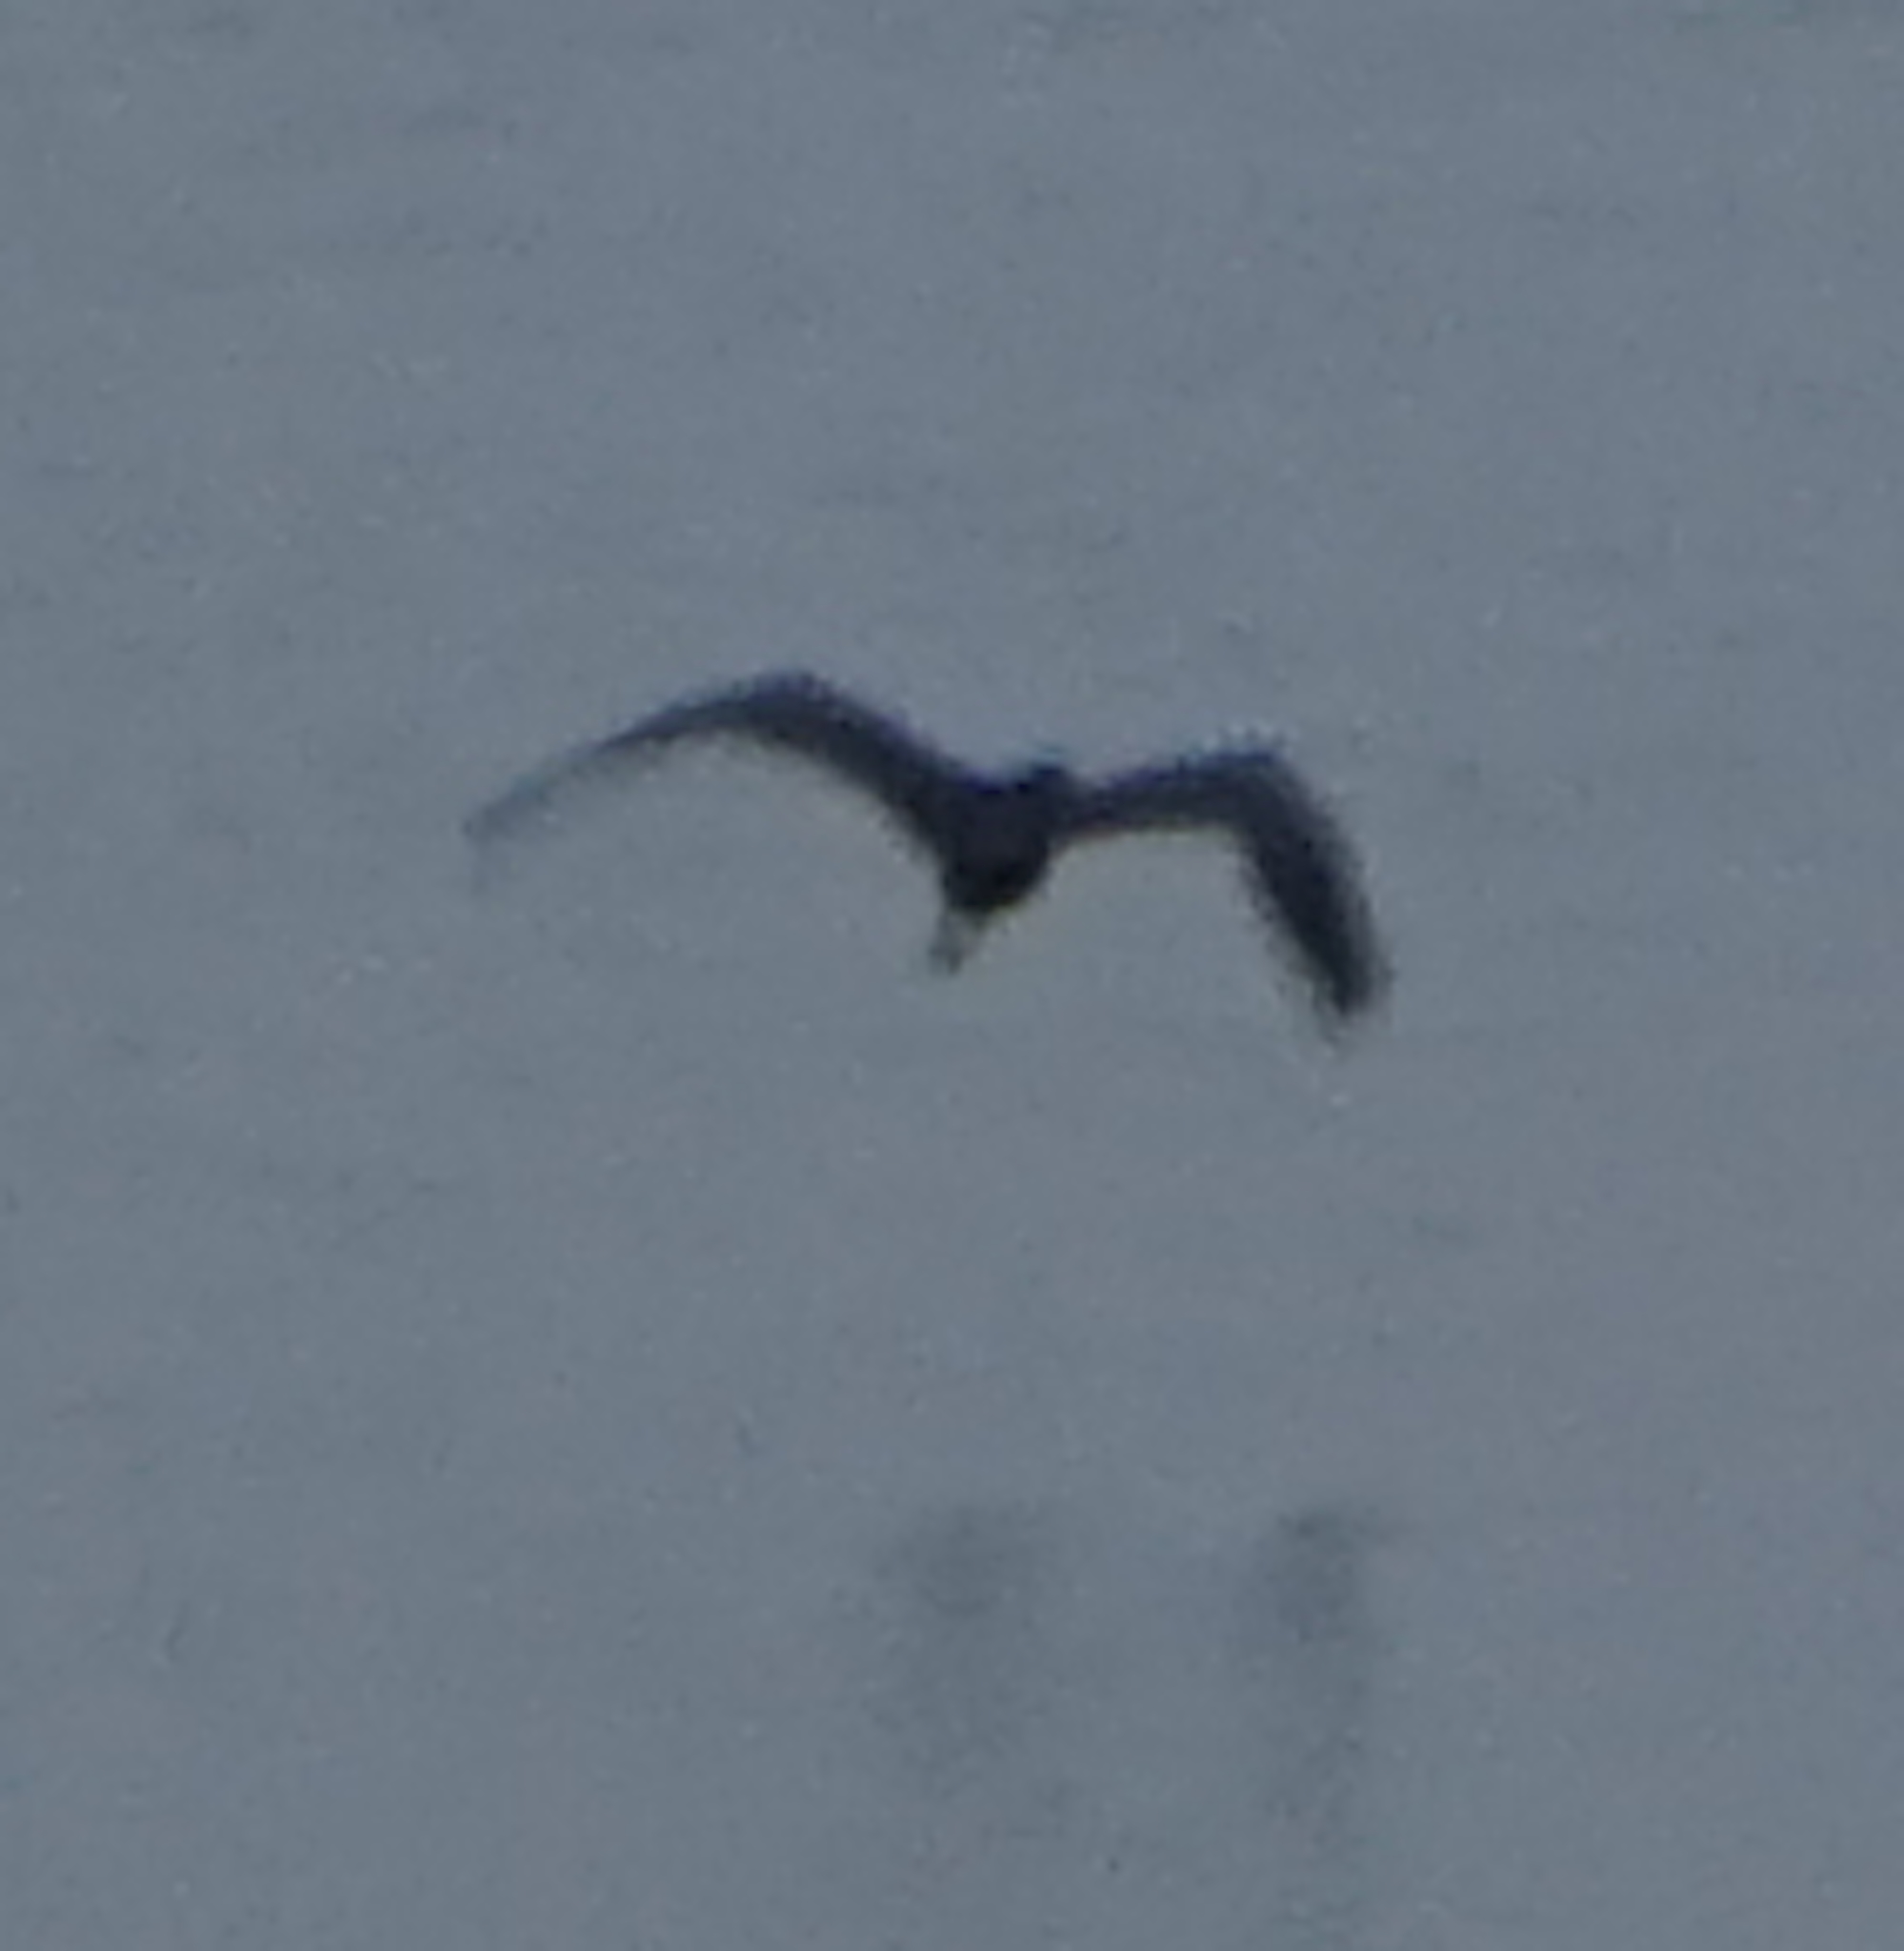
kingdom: Animalia
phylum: Chordata
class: Aves
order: Pelecaniformes
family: Ardeidae
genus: Egretta
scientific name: Egretta sacra
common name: Pacific reef heron
